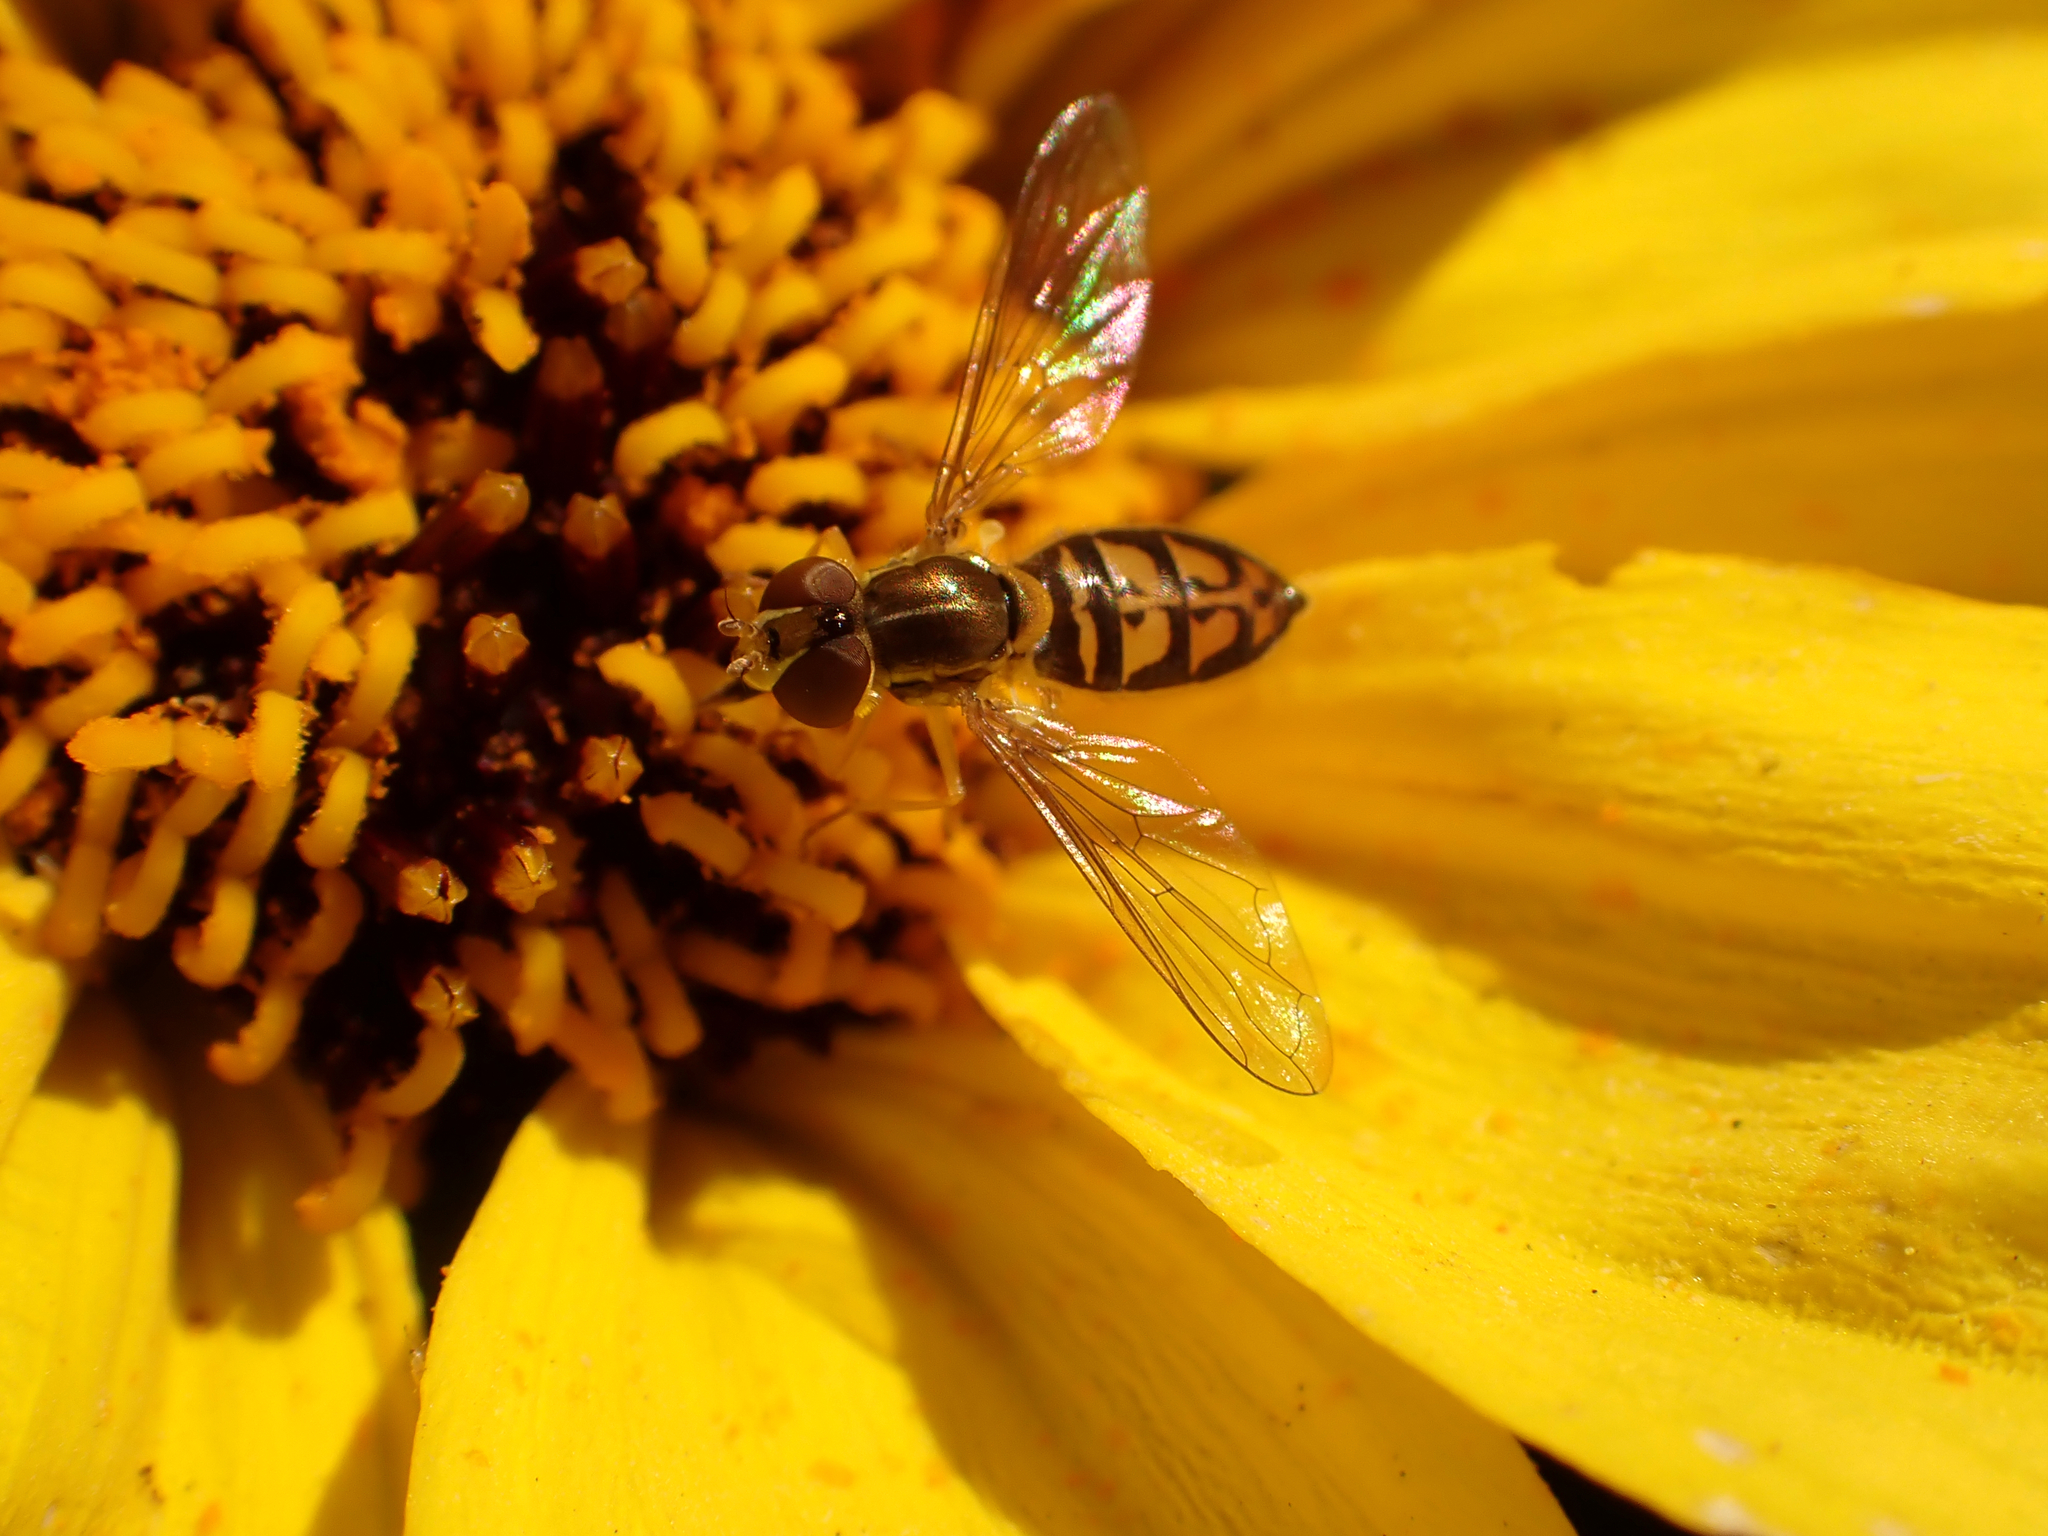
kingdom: Animalia
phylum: Arthropoda
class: Insecta
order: Diptera
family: Syrphidae
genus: Toxomerus
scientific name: Toxomerus marginatus
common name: Syrphid fly
